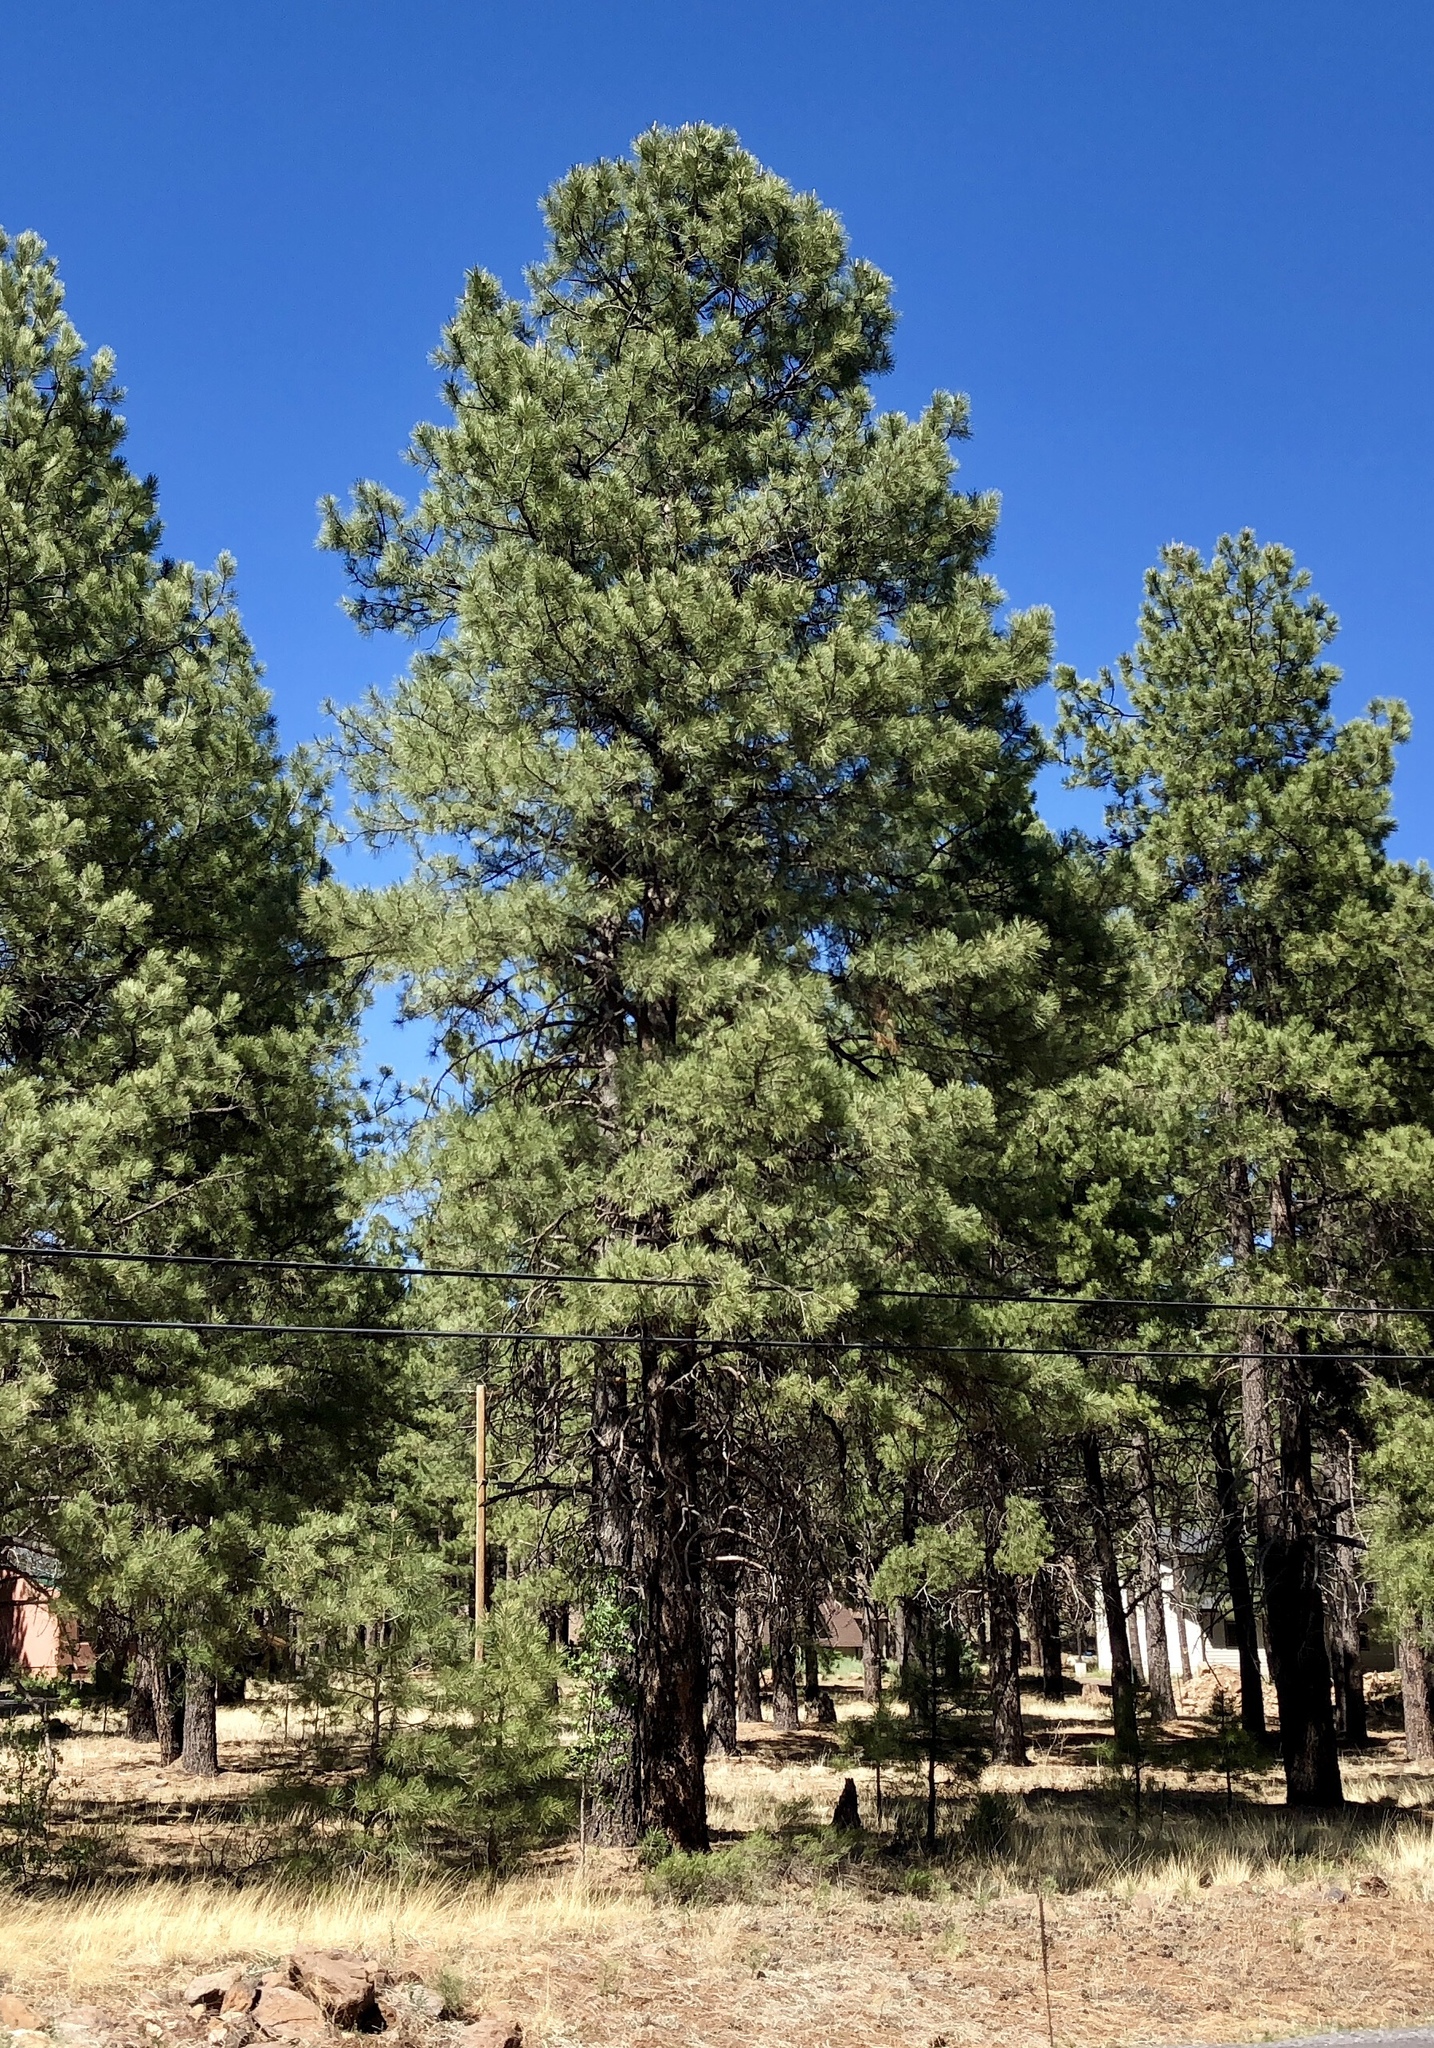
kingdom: Plantae
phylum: Tracheophyta
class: Pinopsida
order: Pinales
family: Pinaceae
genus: Pinus
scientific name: Pinus ponderosa
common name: Western yellow-pine
